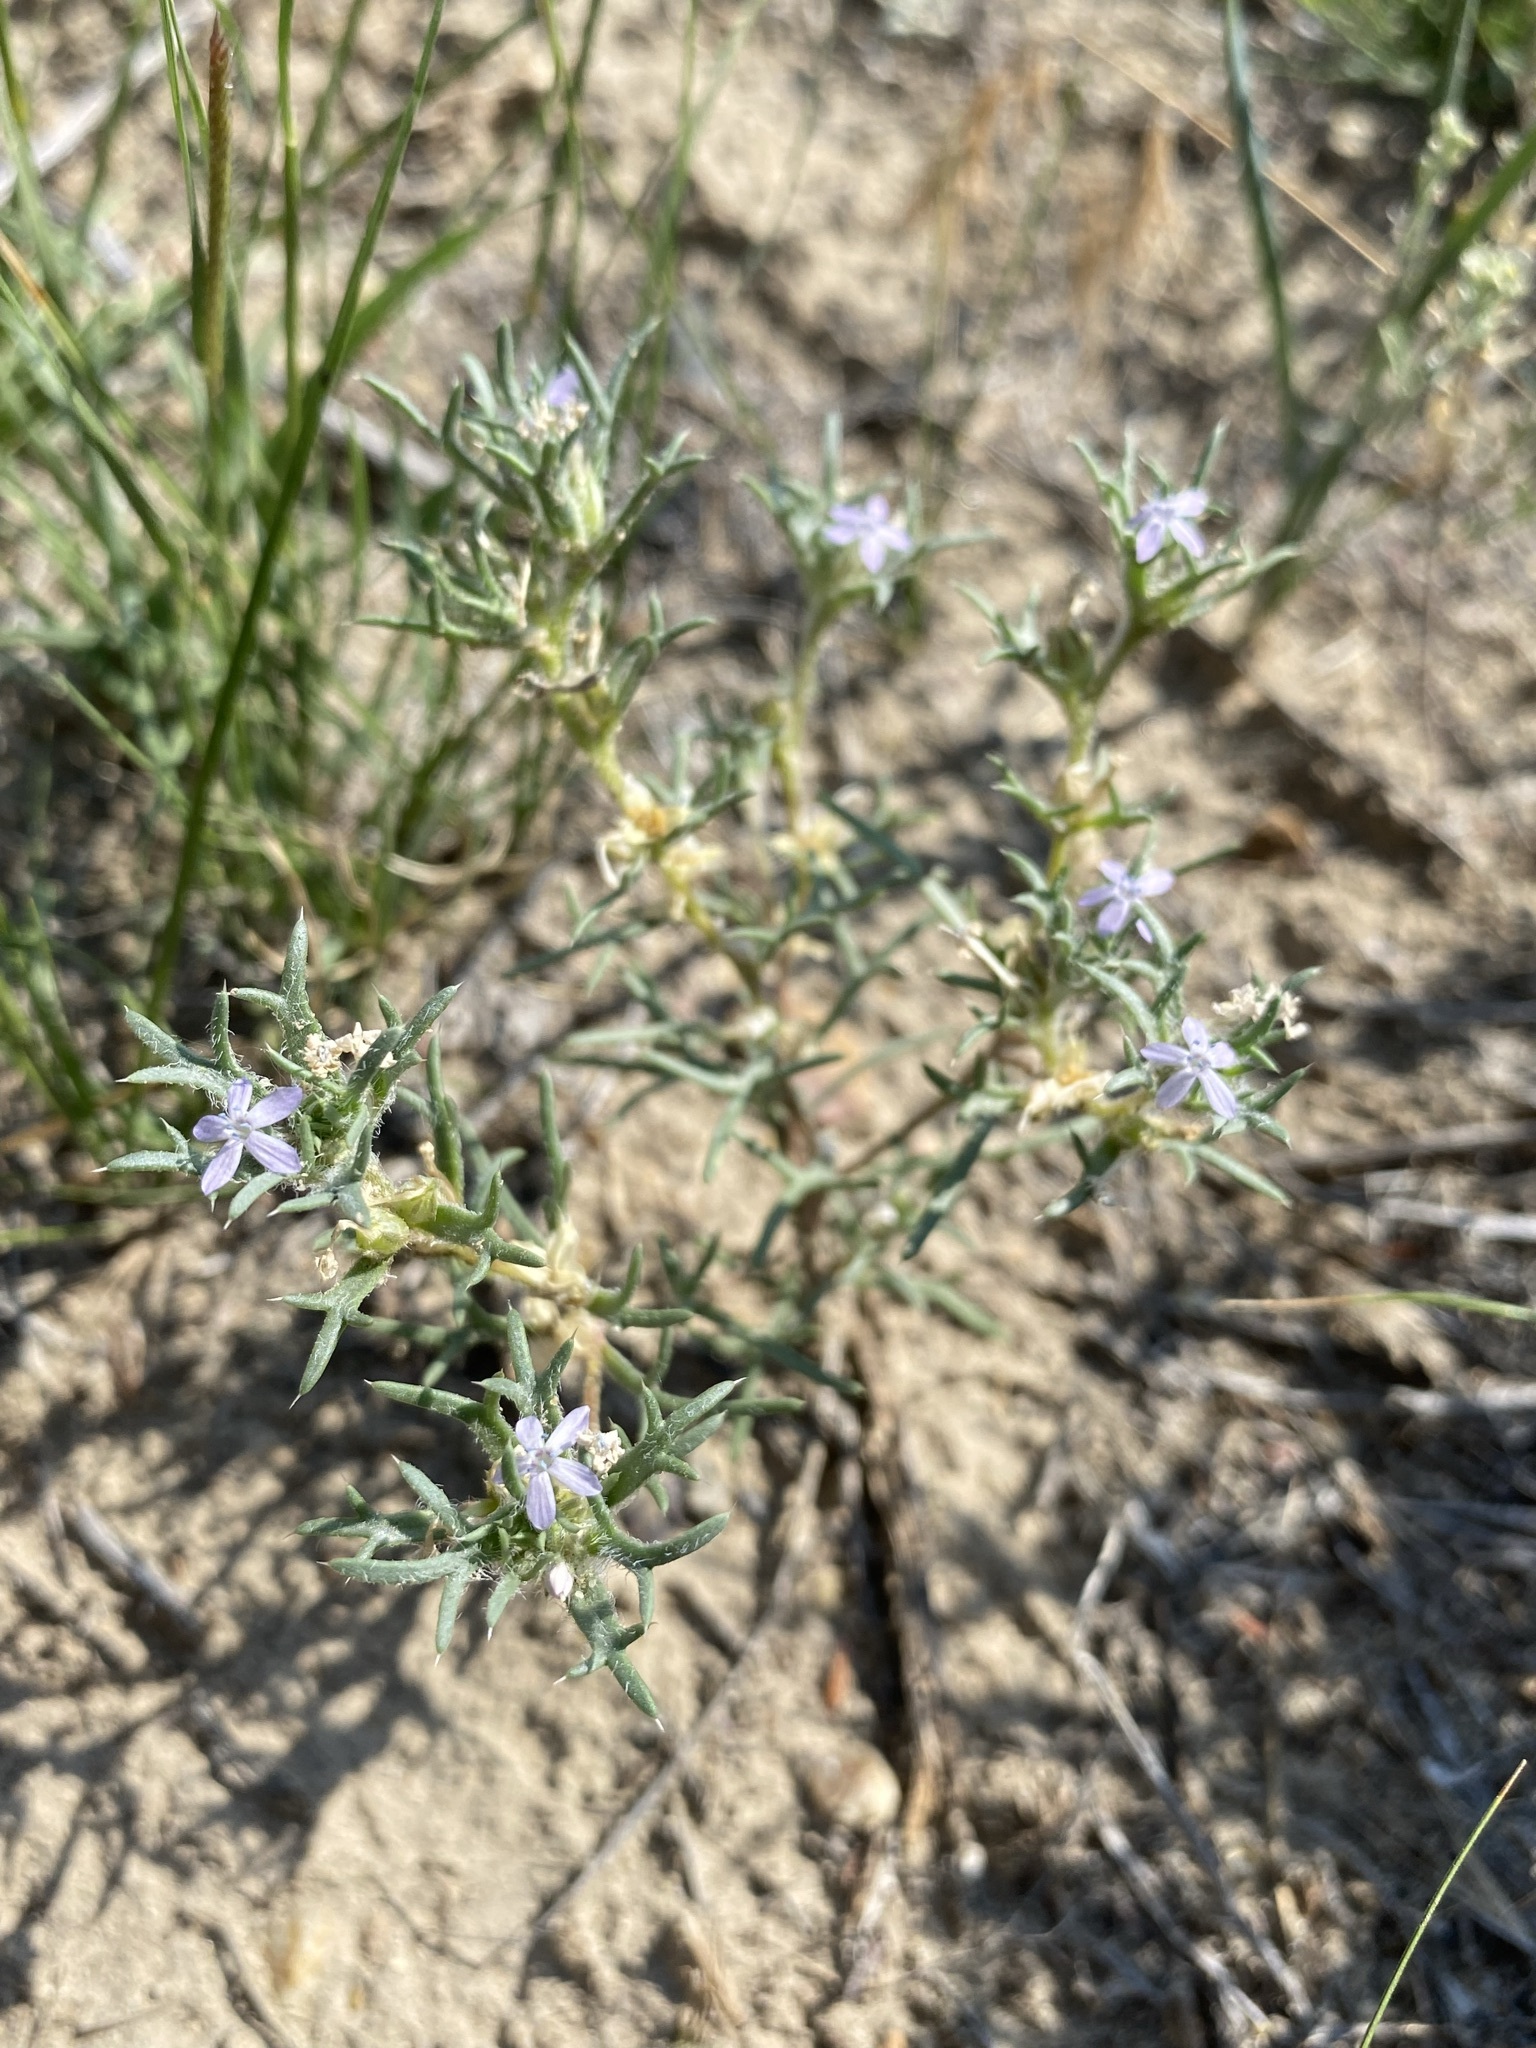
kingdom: Plantae
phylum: Tracheophyta
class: Magnoliopsida
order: Ericales
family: Polemoniaceae
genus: Ipomopsis
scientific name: Ipomopsis pumila
